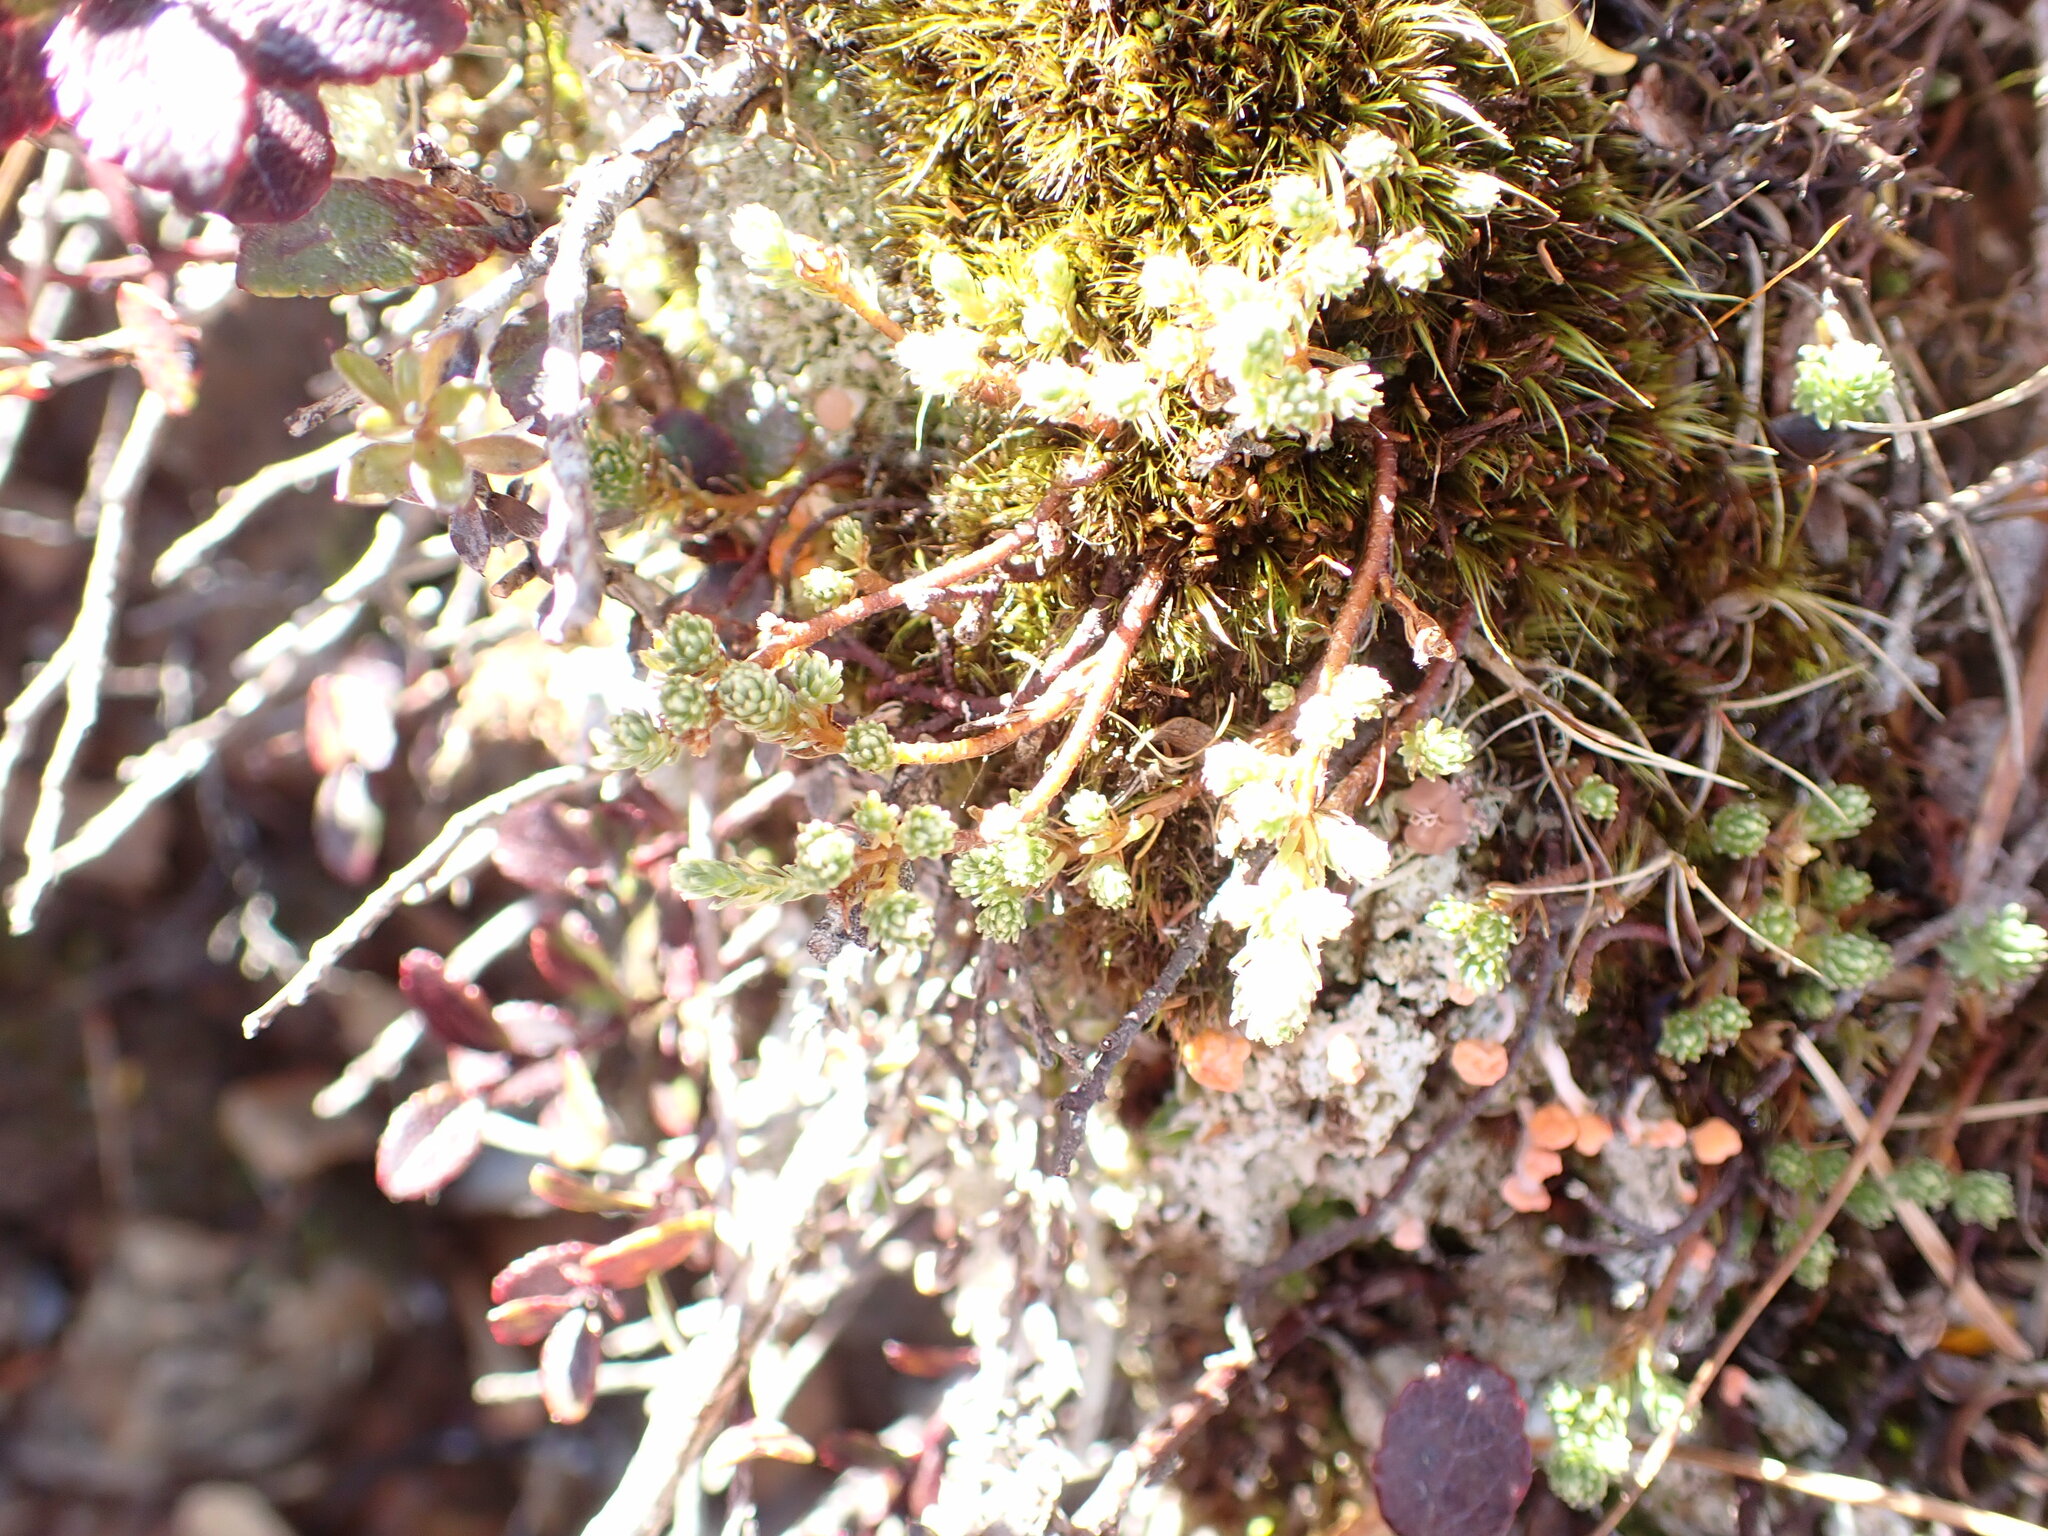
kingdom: Plantae
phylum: Tracheophyta
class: Magnoliopsida
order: Malvales
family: Thymelaeaceae
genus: Kelleria
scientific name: Kelleria dieffenbachii
